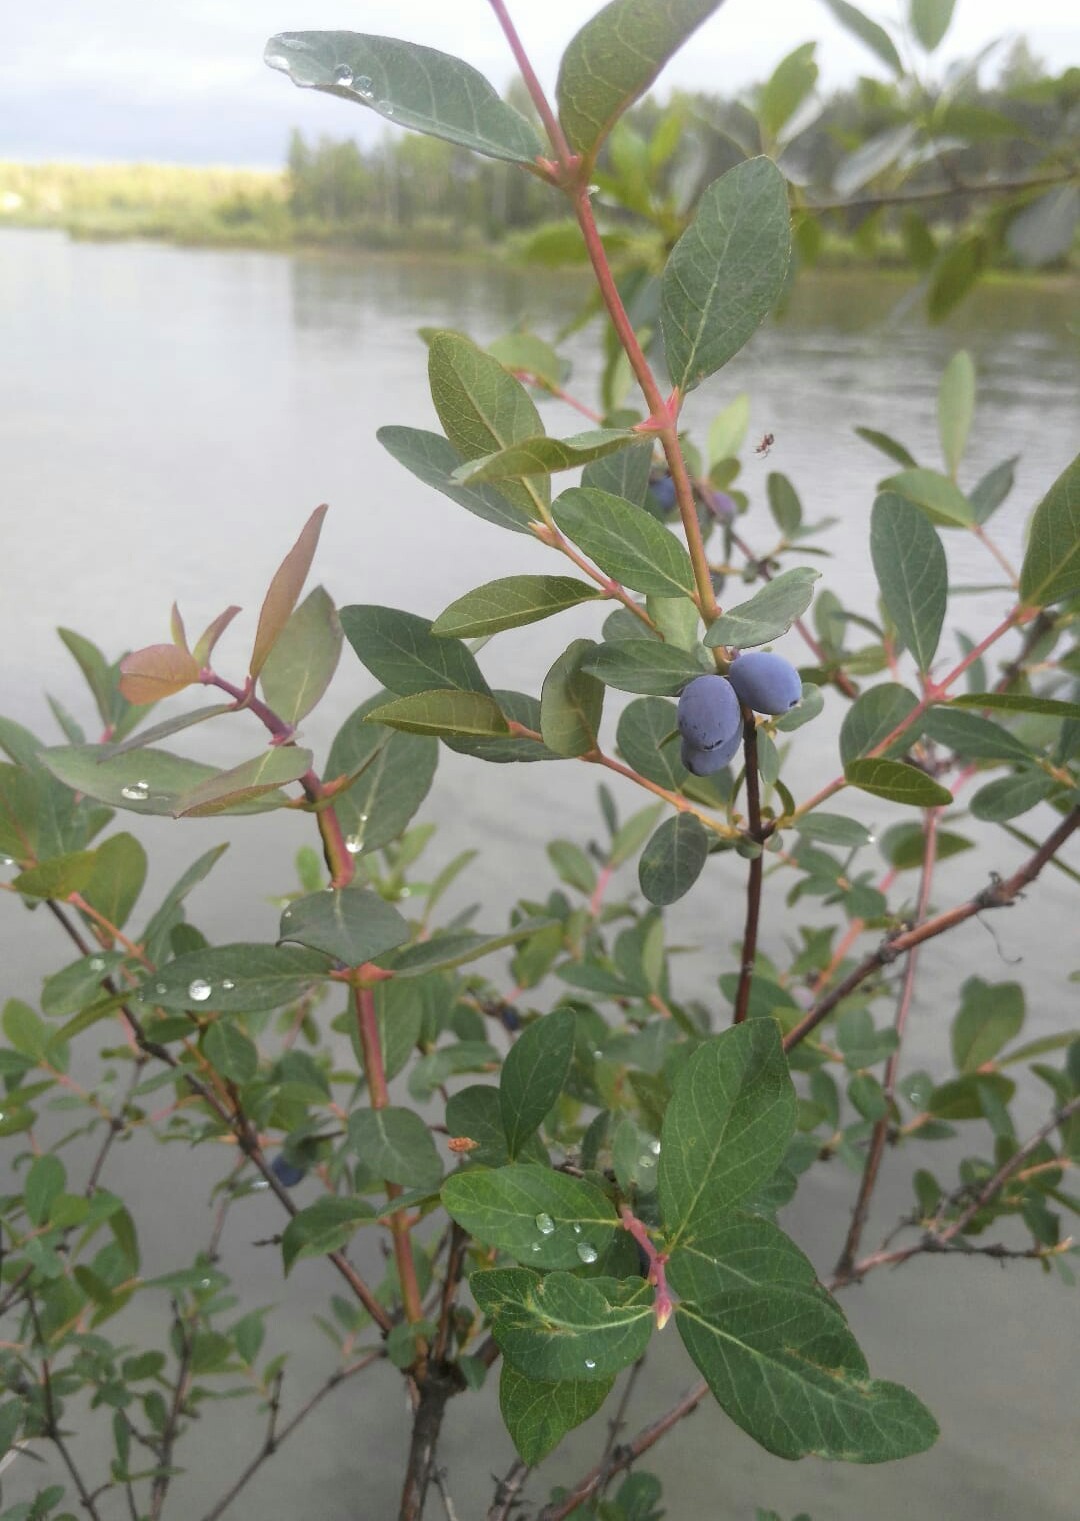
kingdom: Plantae
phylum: Tracheophyta
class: Magnoliopsida
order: Dipsacales
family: Caprifoliaceae
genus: Lonicera
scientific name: Lonicera caerulea
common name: Blue honeysuckle
